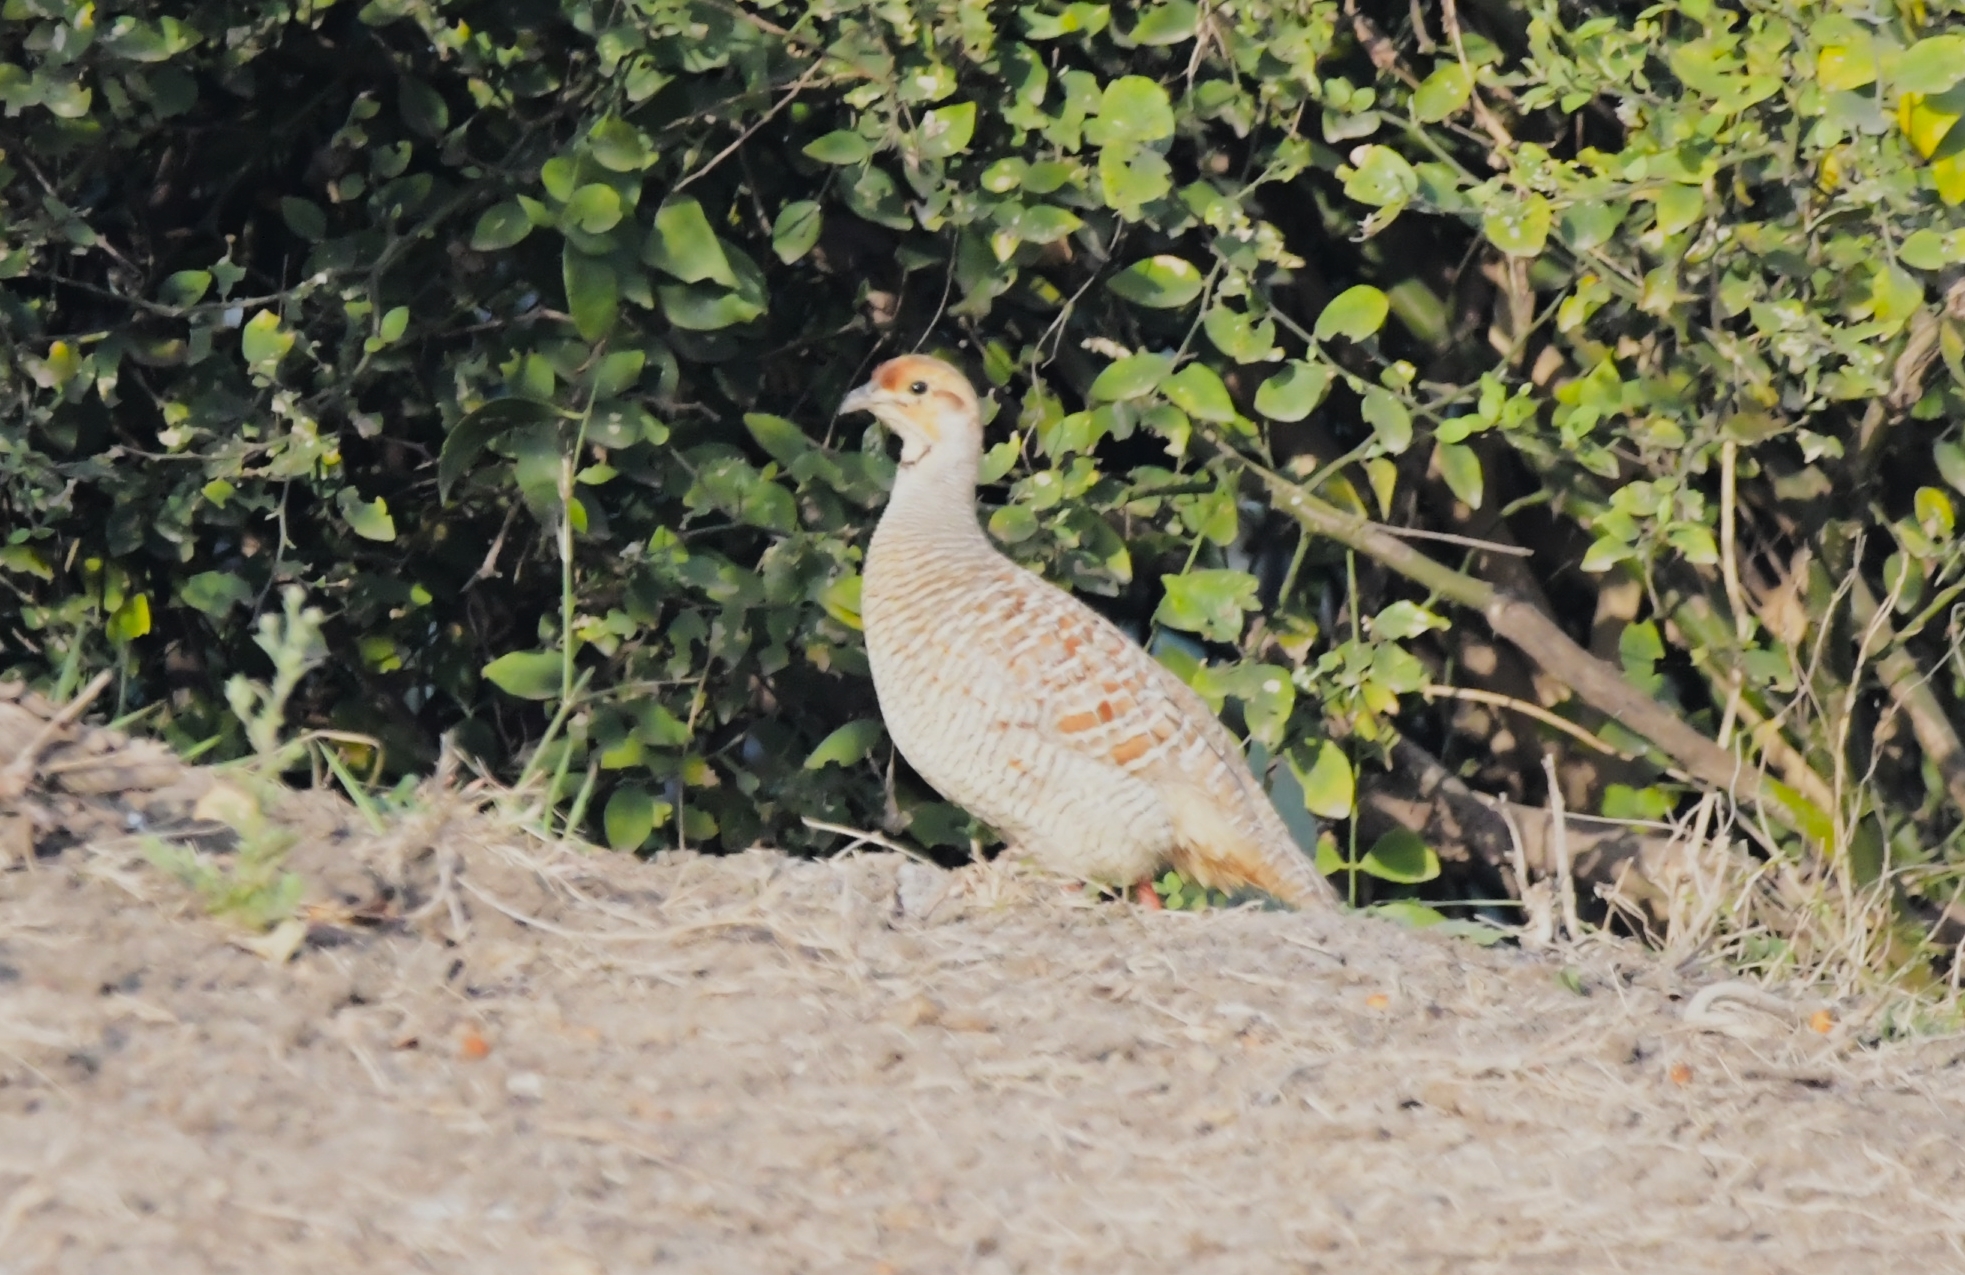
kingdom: Animalia
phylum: Chordata
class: Aves
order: Galliformes
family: Phasianidae
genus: Ortygornis
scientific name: Ortygornis pondicerianus
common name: Grey francolin
